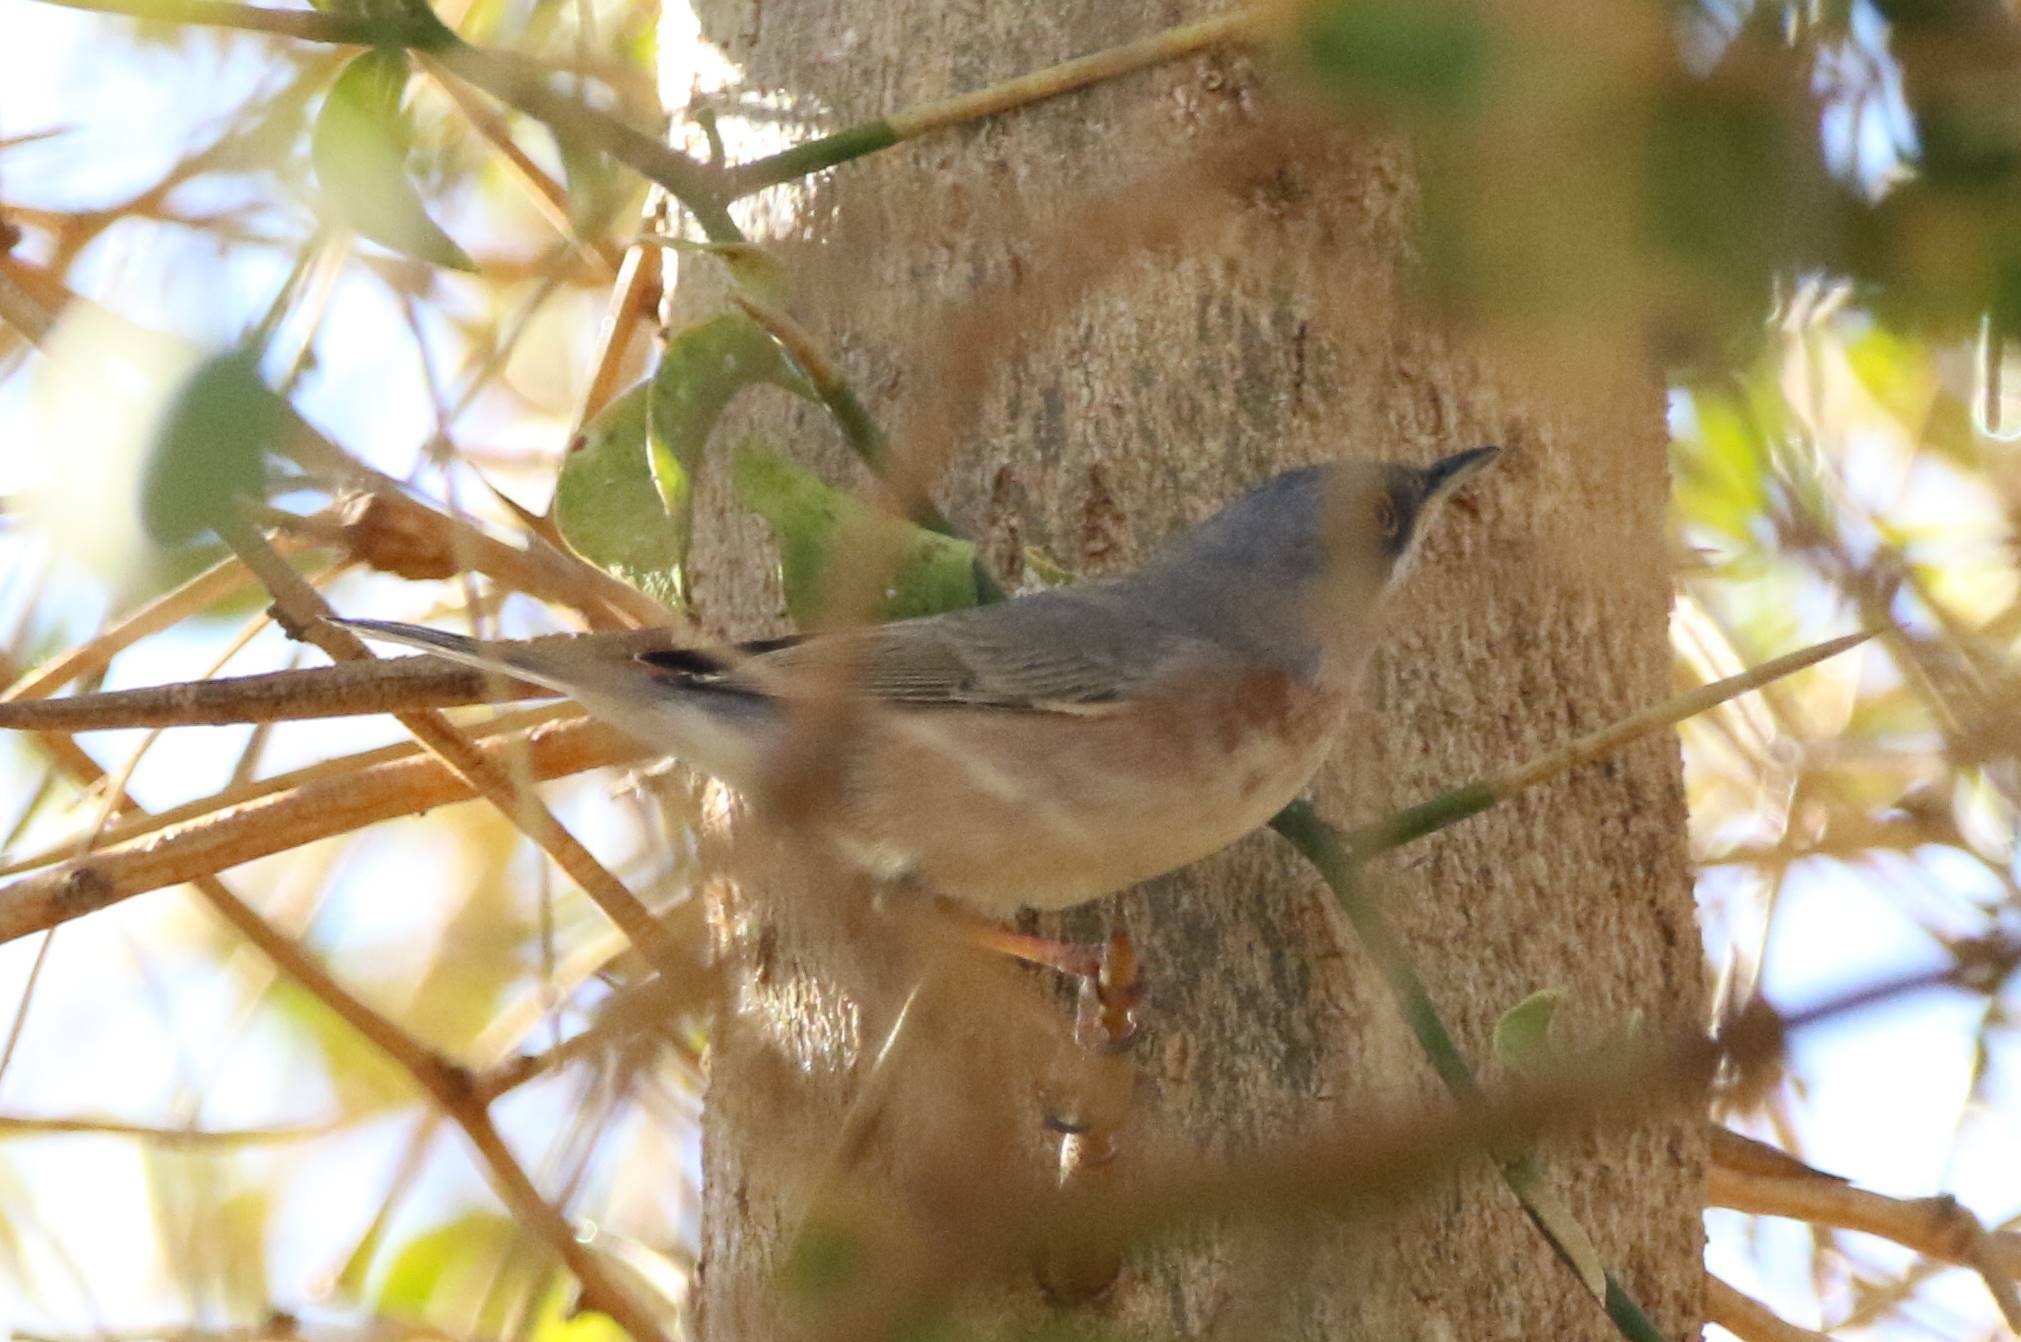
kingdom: Animalia
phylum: Chordata
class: Aves
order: Passeriformes
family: Sylviidae
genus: Curruca
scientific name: Curruca subalpina
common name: Moltoni's warbler
